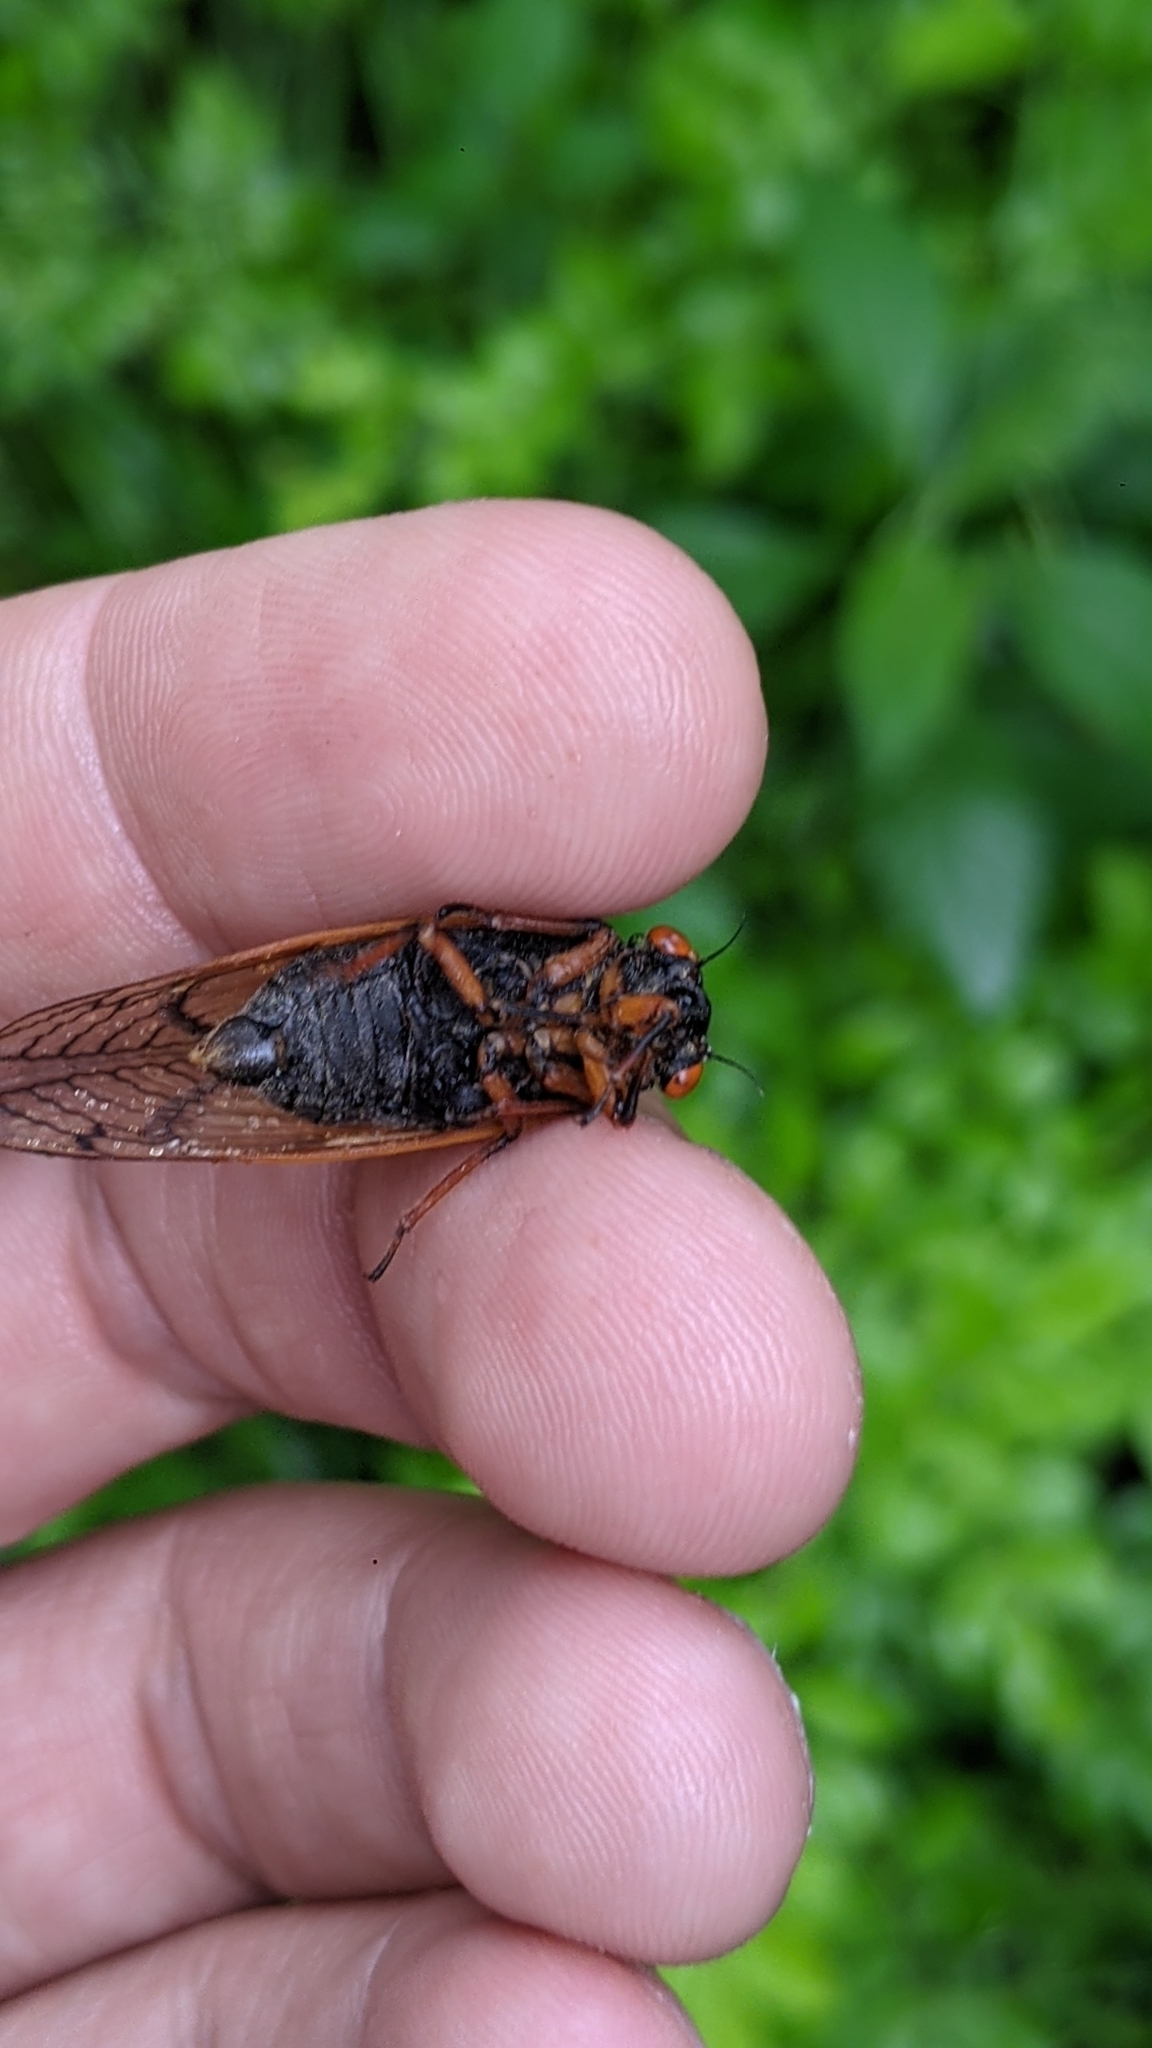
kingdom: Animalia
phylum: Arthropoda
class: Insecta
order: Hemiptera
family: Cicadidae
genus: Magicicada
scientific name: Magicicada cassini
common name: Cassin's 17-year cicada
